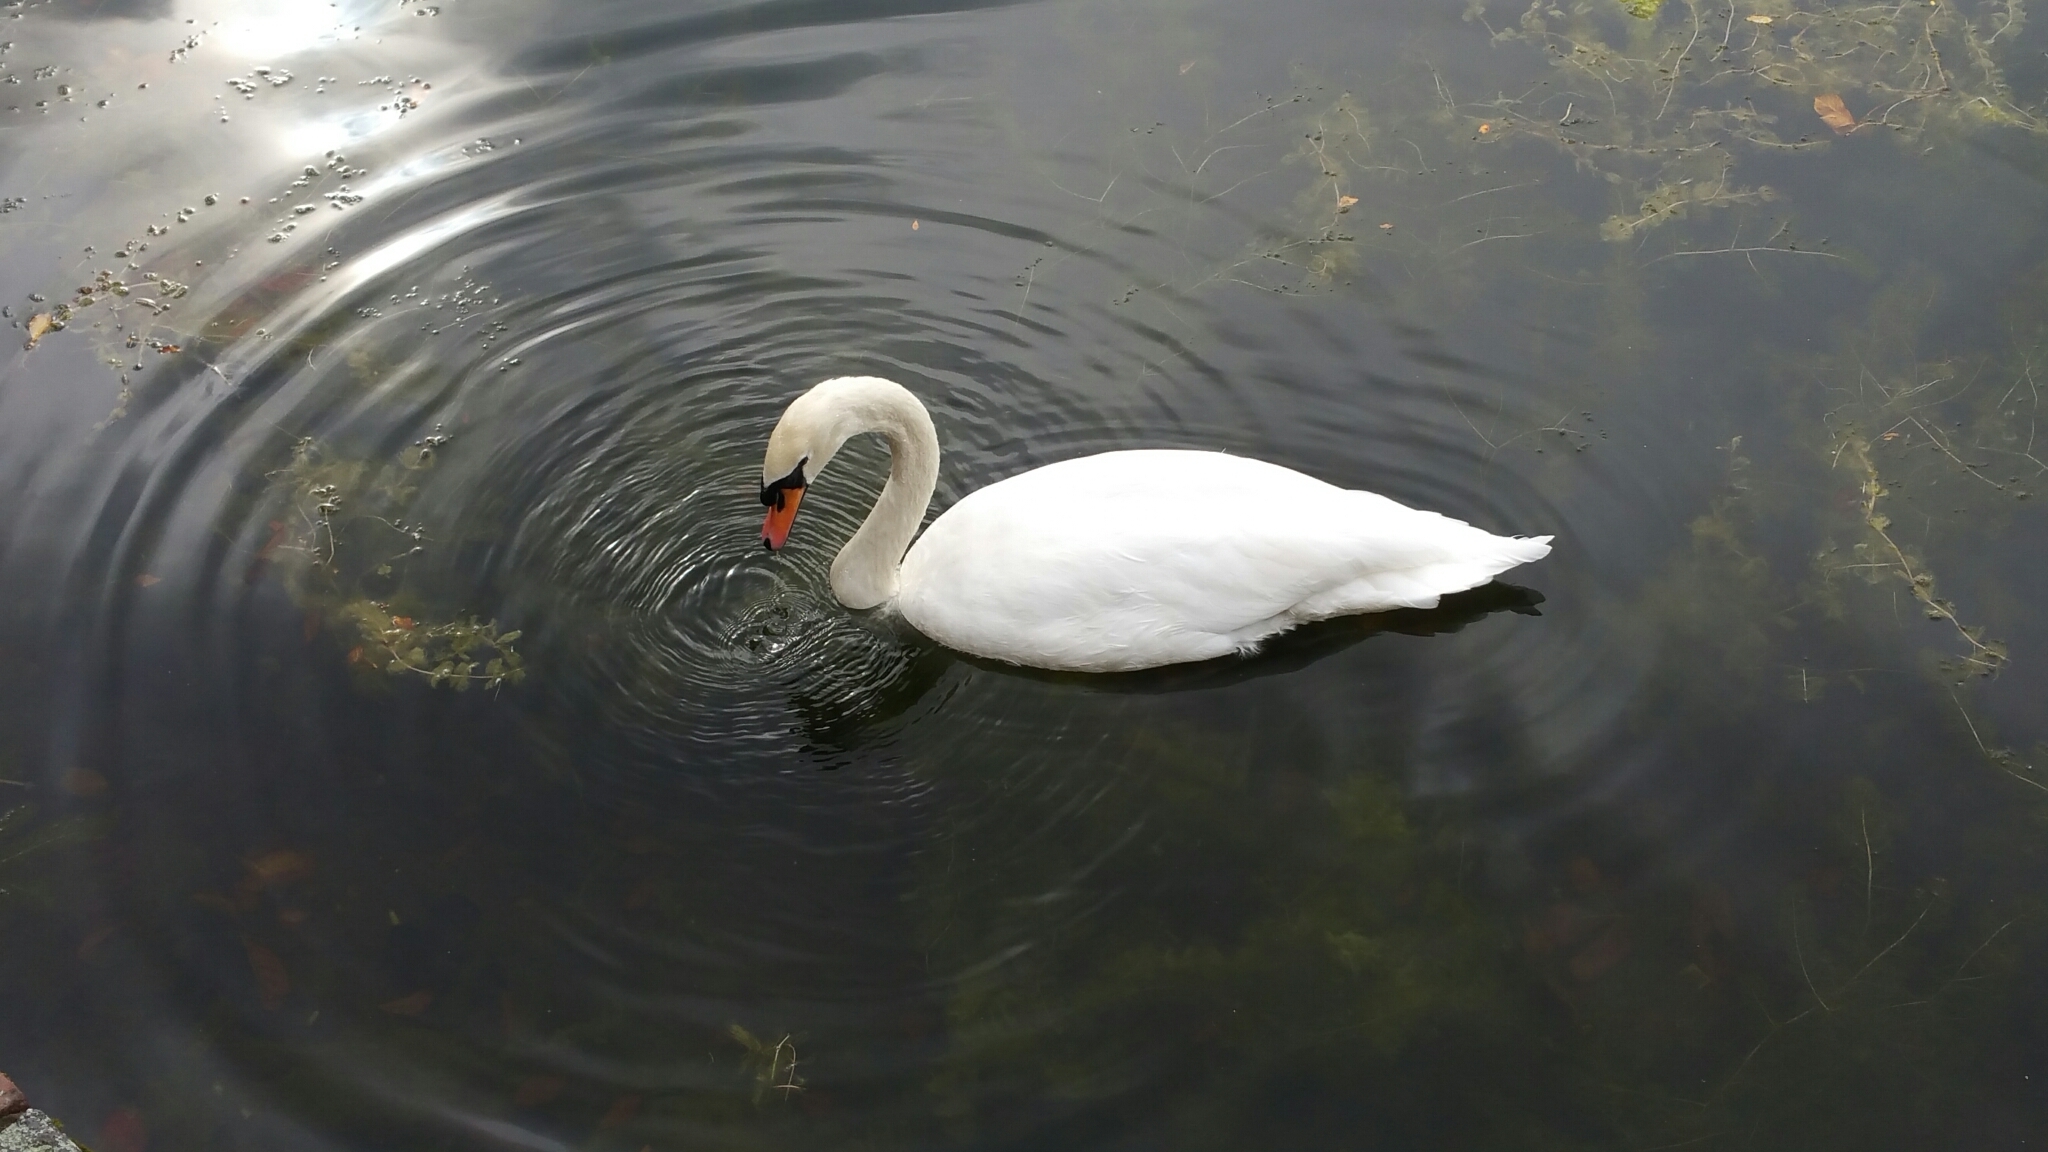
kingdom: Animalia
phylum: Chordata
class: Aves
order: Anseriformes
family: Anatidae
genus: Cygnus
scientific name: Cygnus olor
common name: Mute swan
